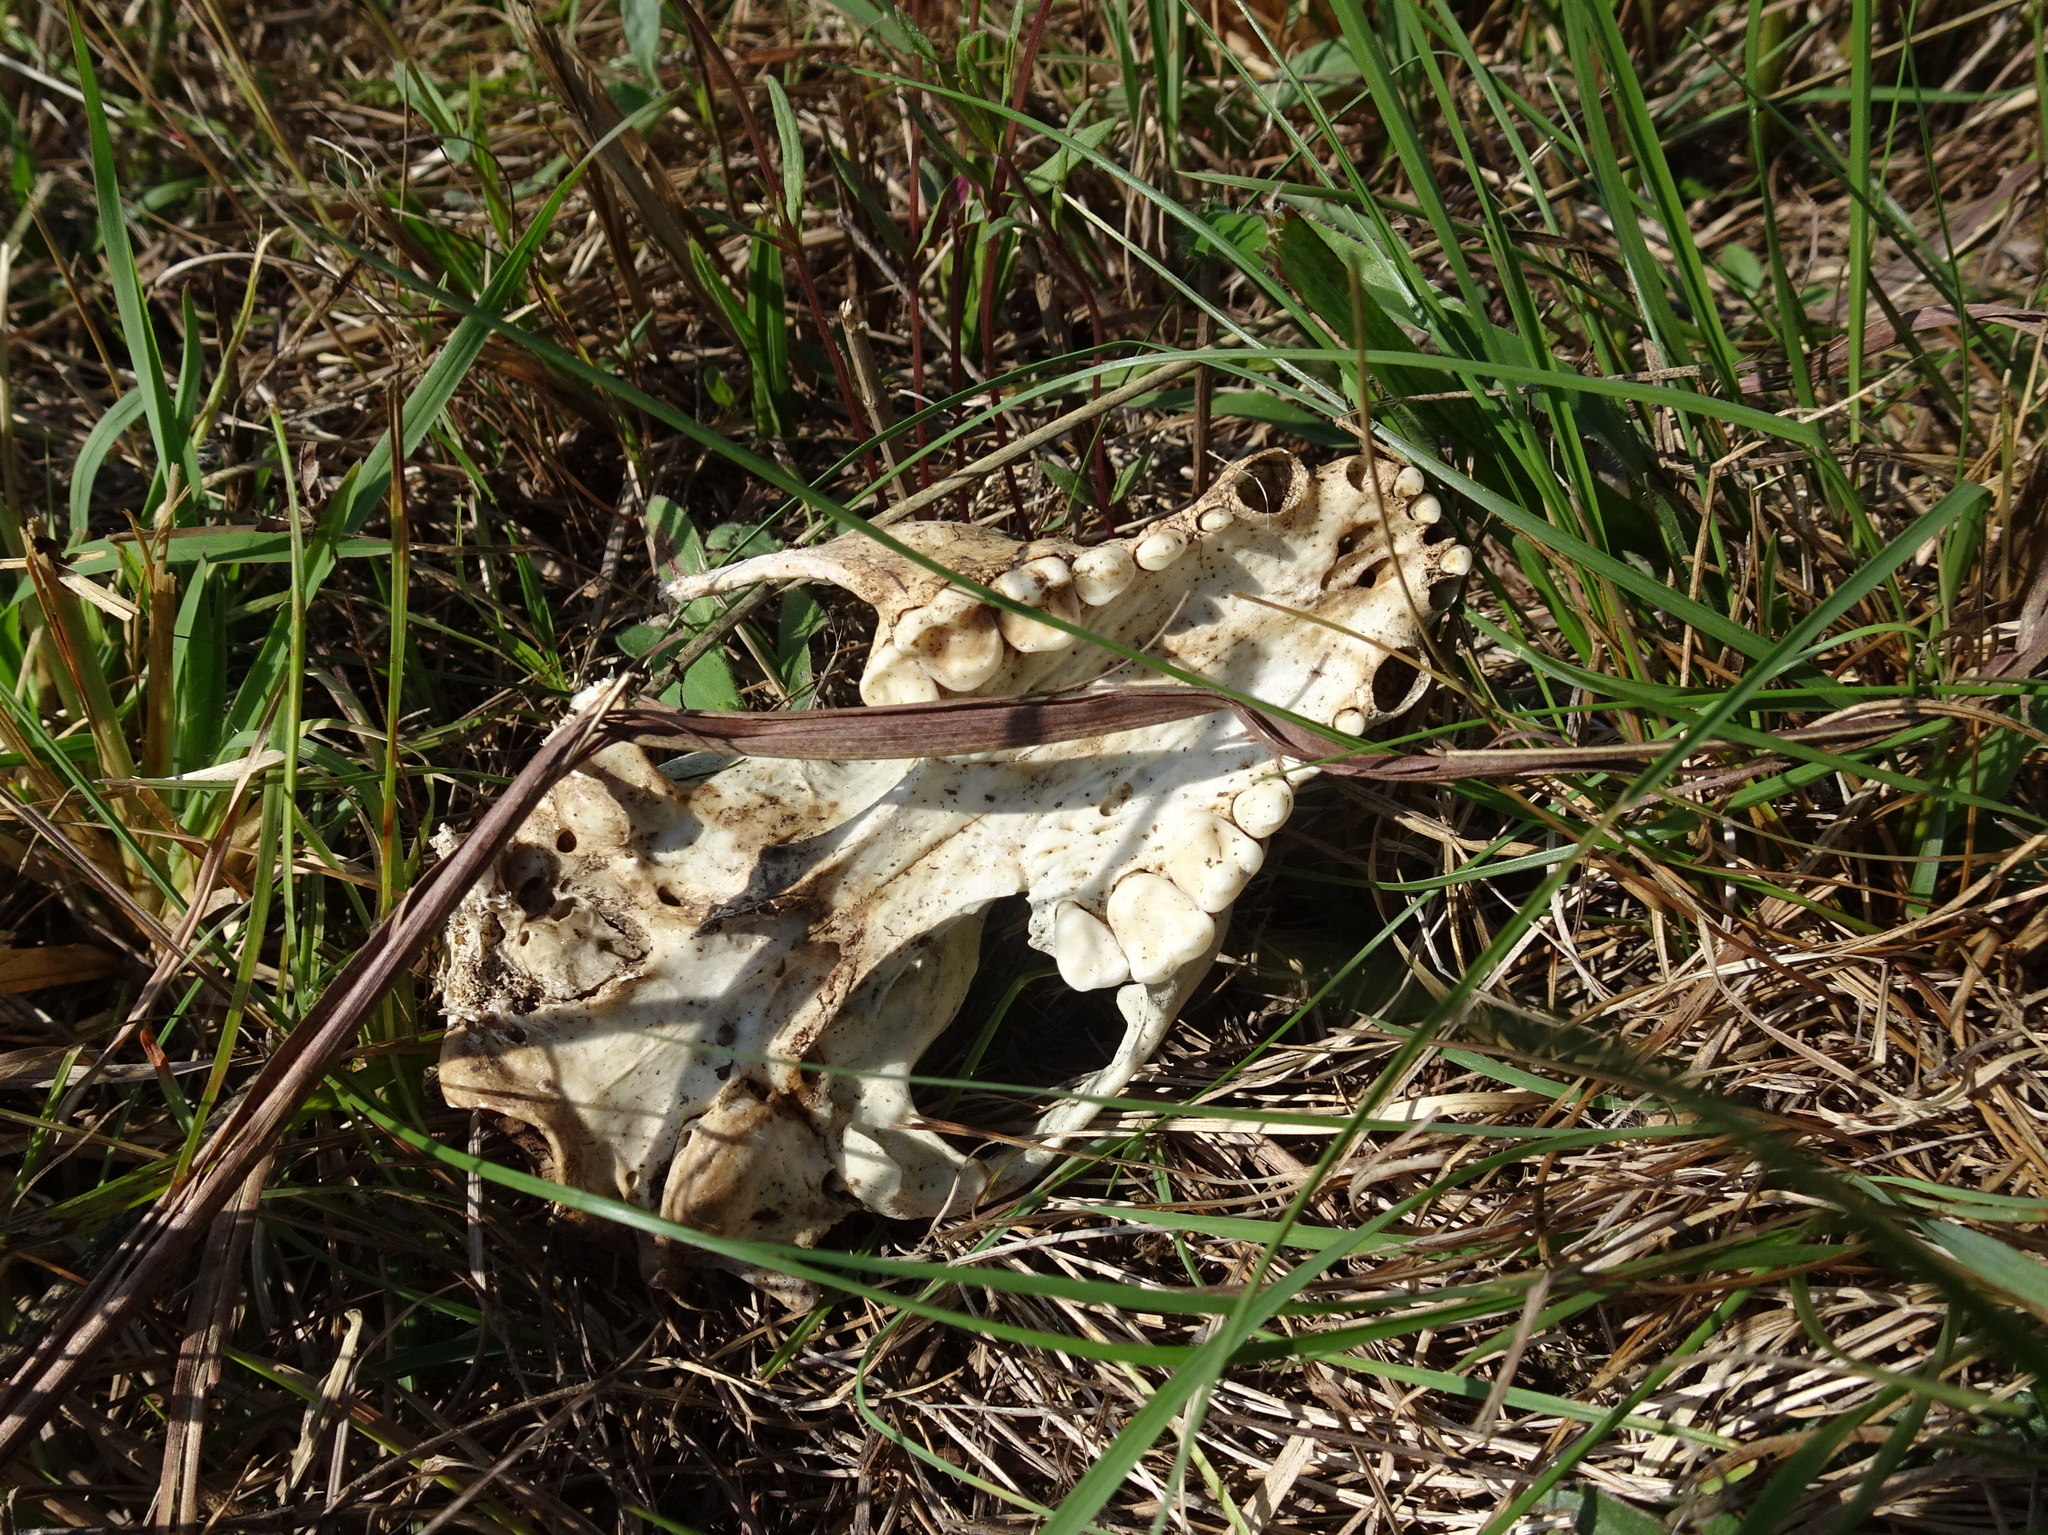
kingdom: Animalia
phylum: Chordata
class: Mammalia
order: Carnivora
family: Procyonidae
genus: Procyon
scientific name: Procyon lotor
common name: Raccoon
